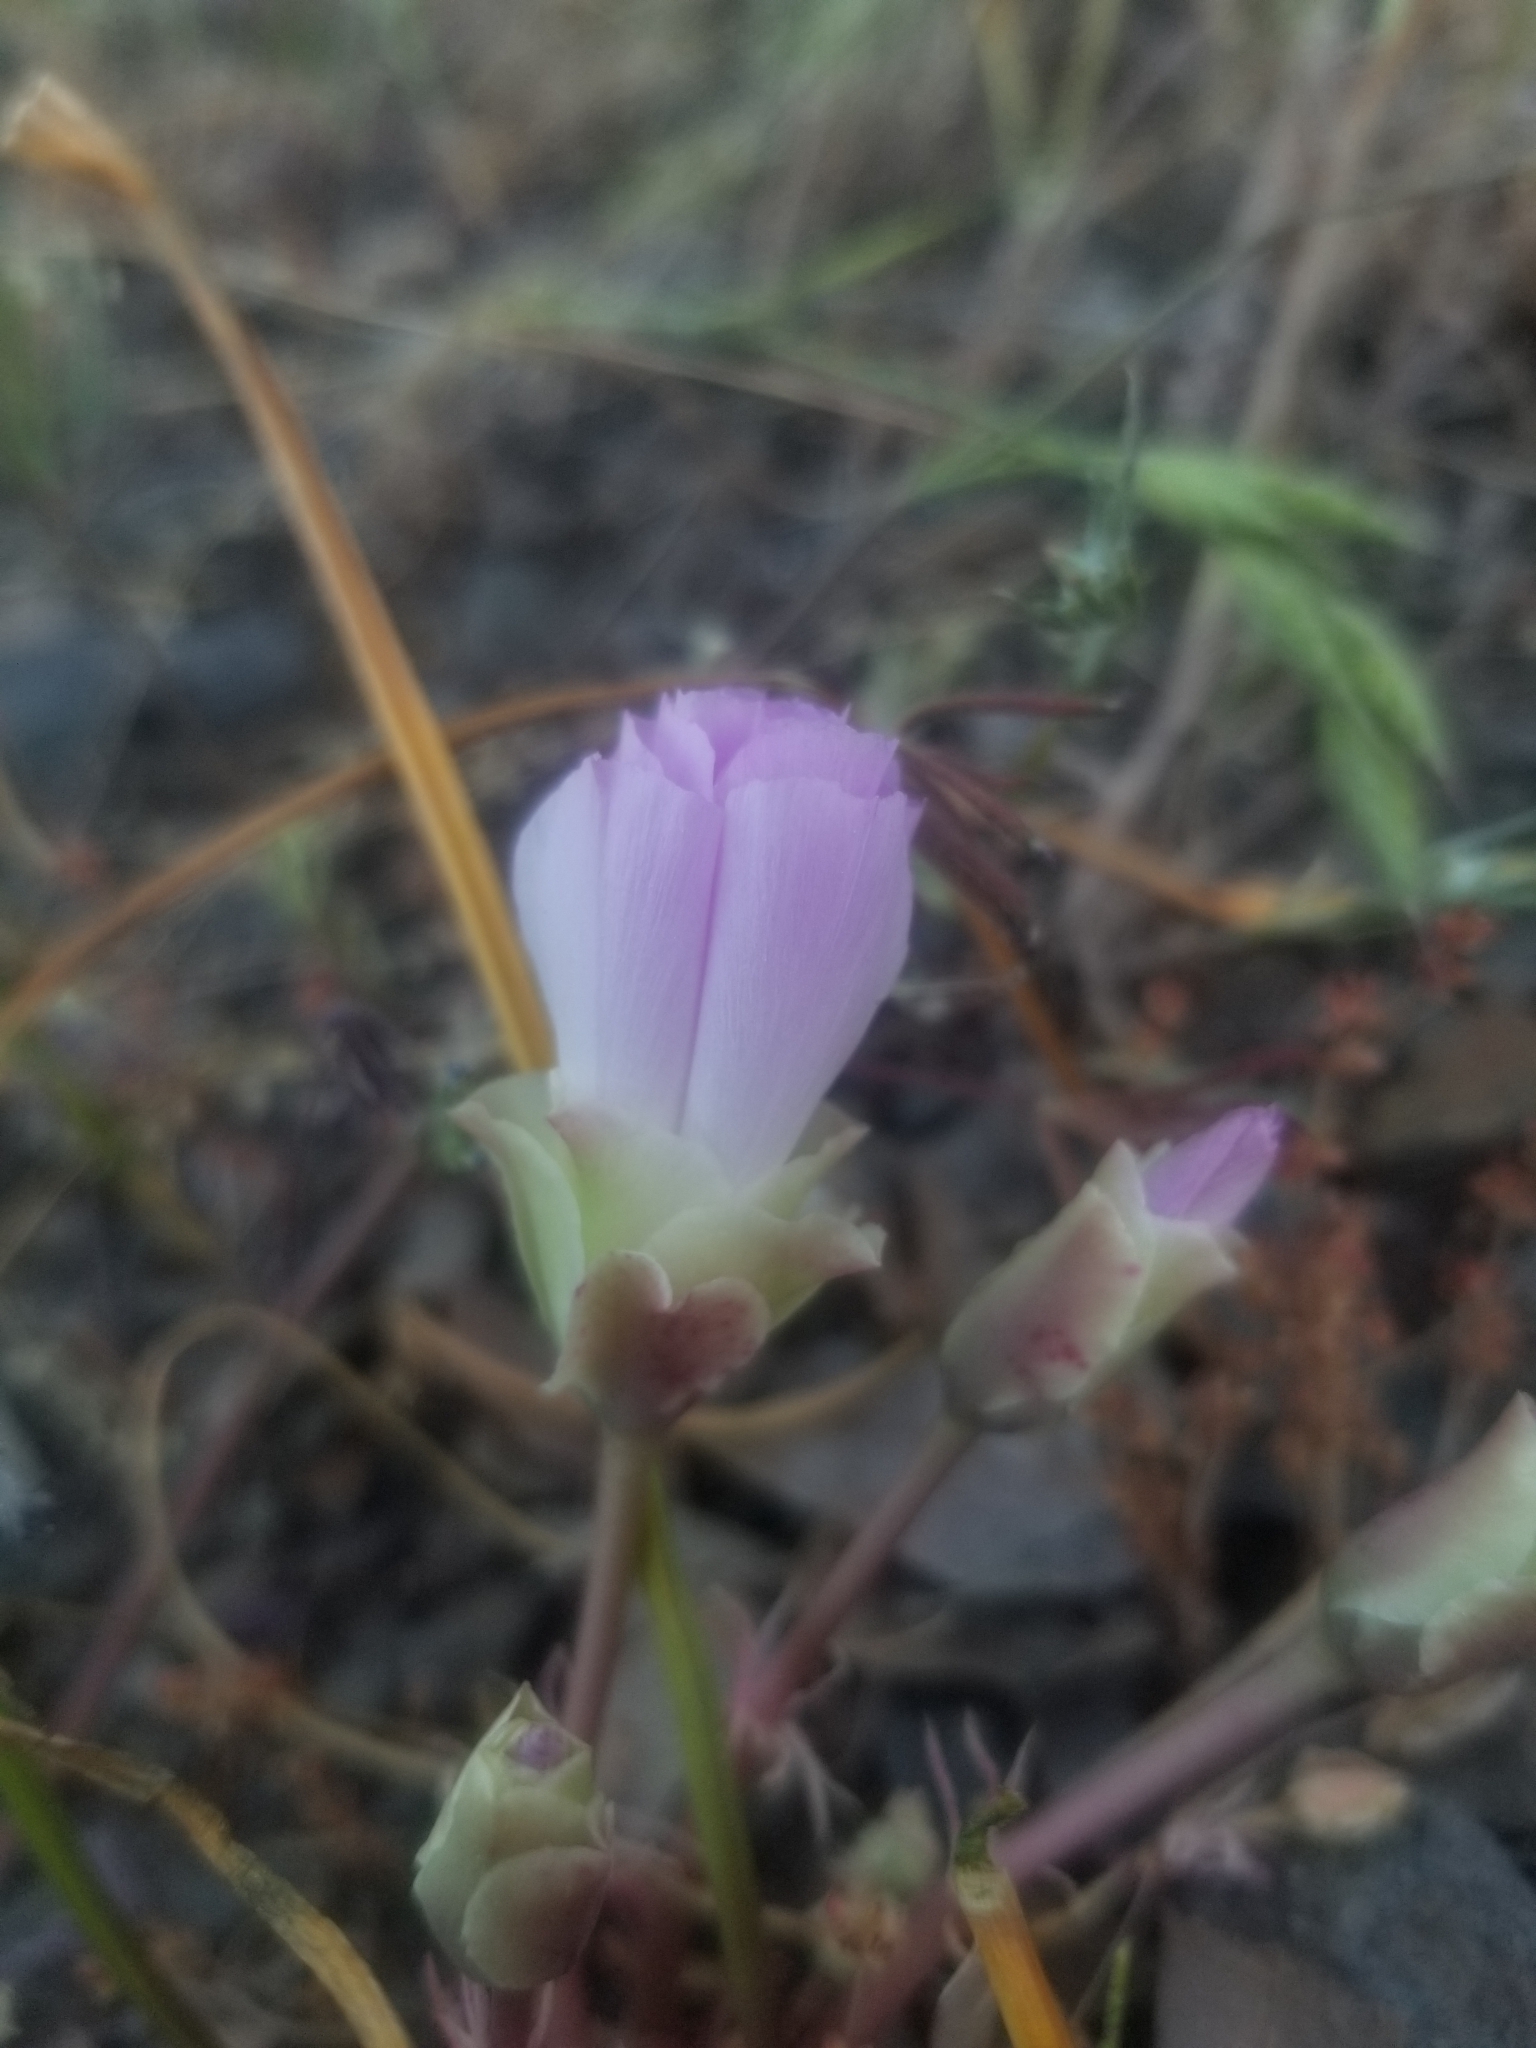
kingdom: Plantae
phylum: Tracheophyta
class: Magnoliopsida
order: Caryophyllales
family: Montiaceae
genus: Lewisia
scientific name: Lewisia rediviva
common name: Bitter-root
